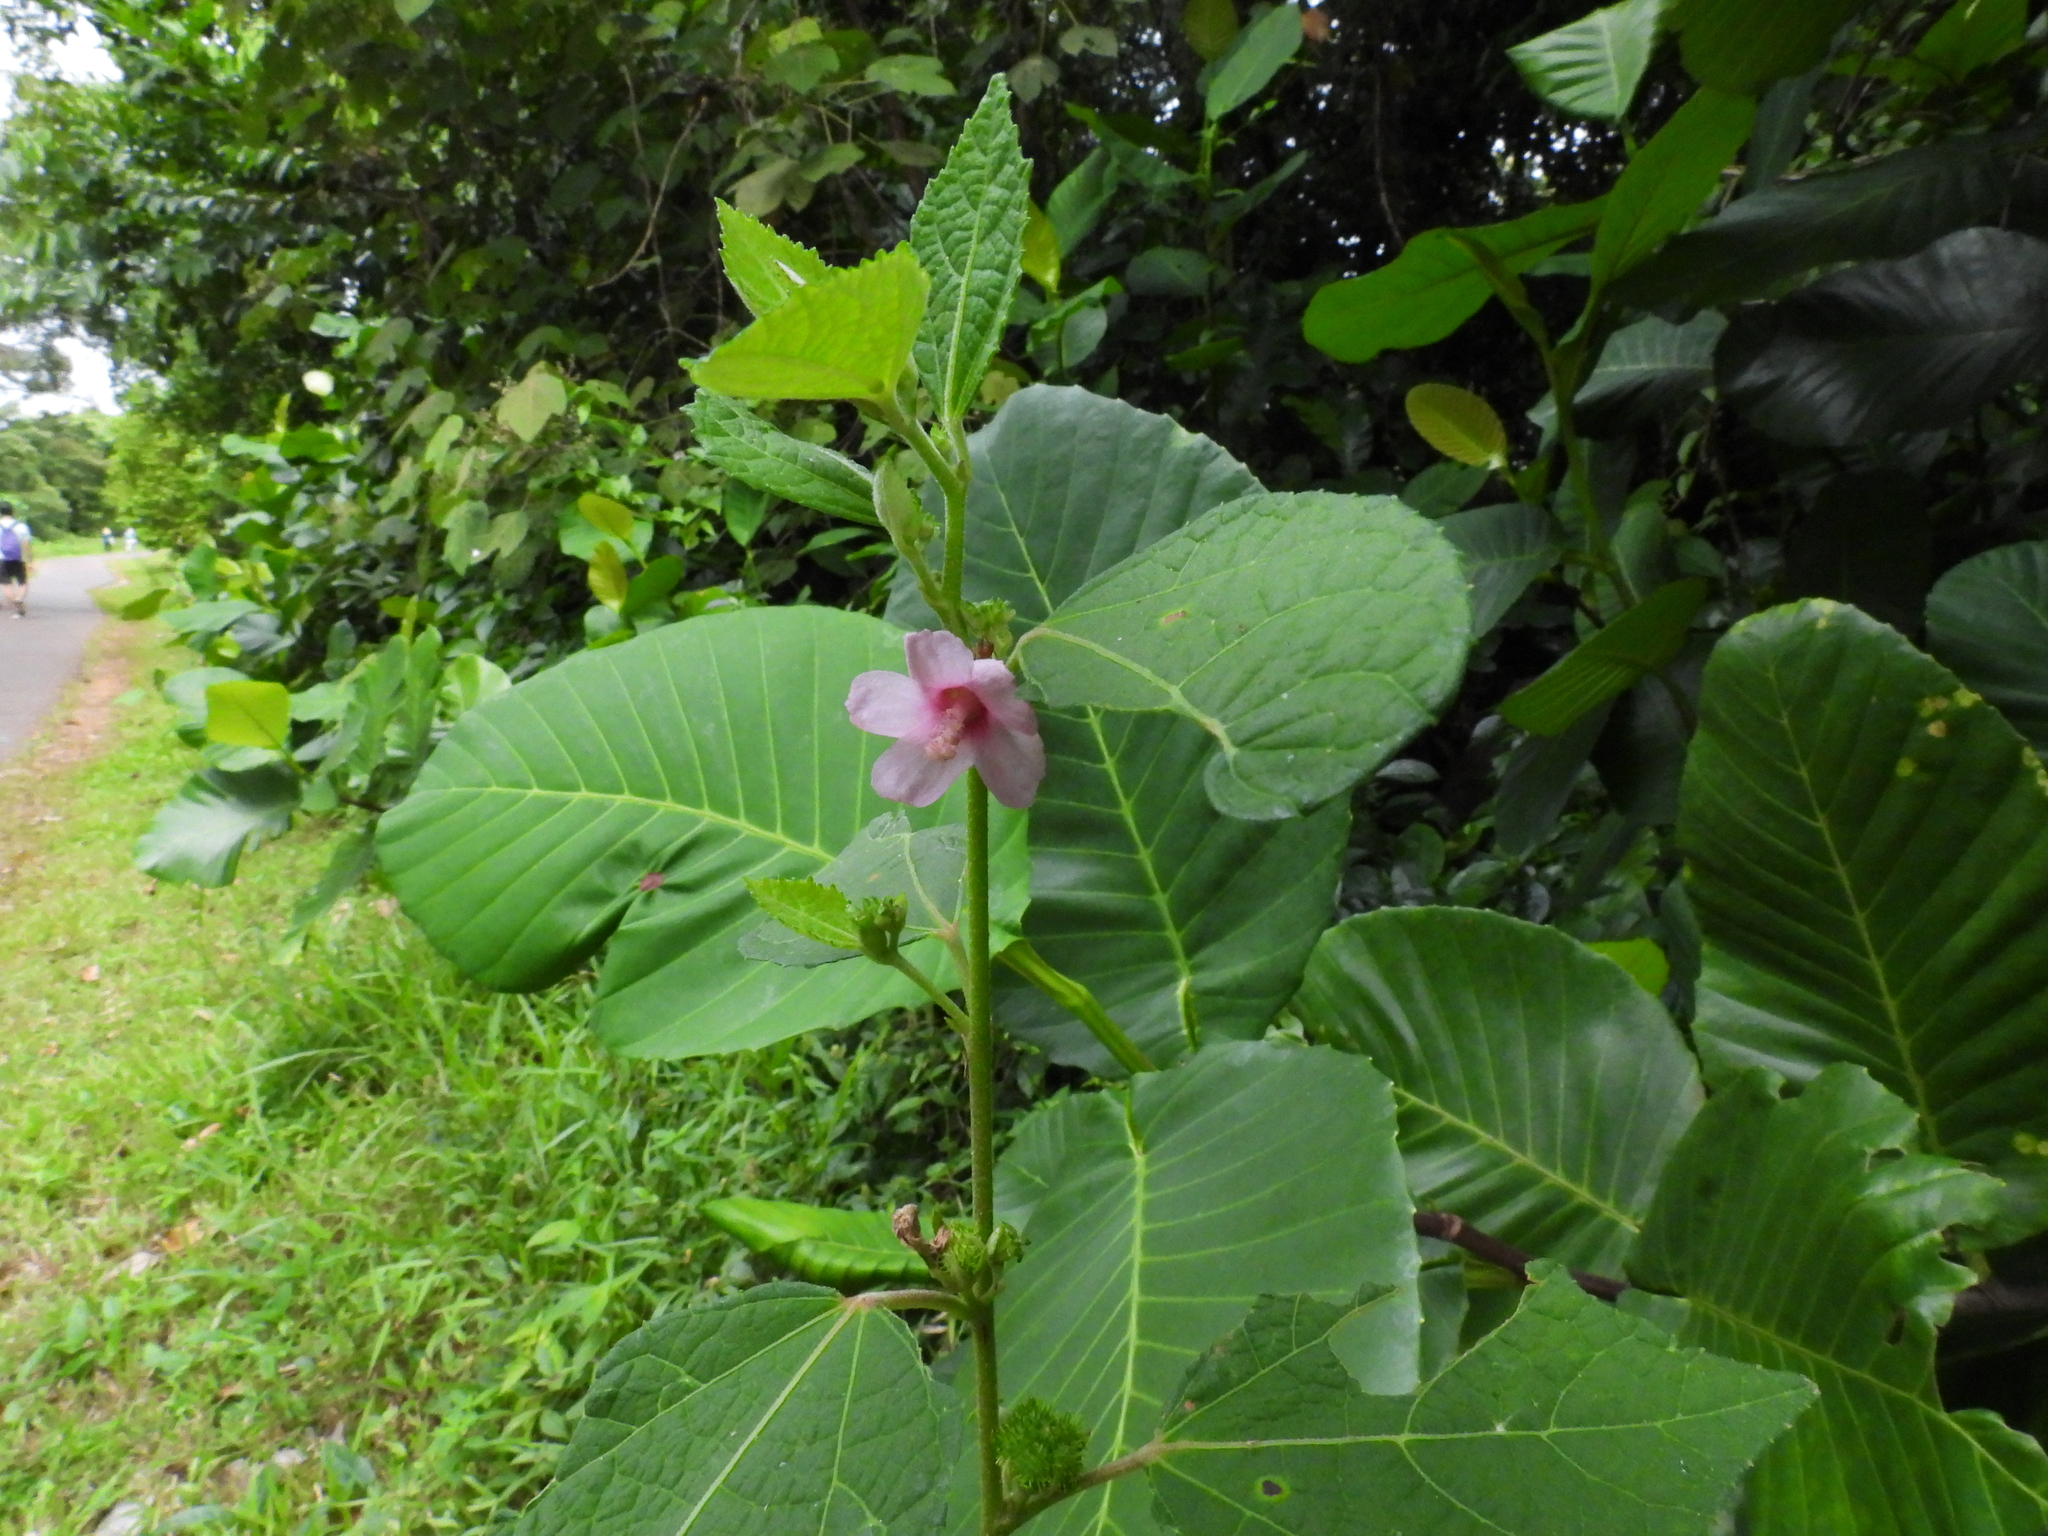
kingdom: Plantae
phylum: Tracheophyta
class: Magnoliopsida
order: Malvales
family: Malvaceae
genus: Urena
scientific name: Urena lobata
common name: Caesarweed
